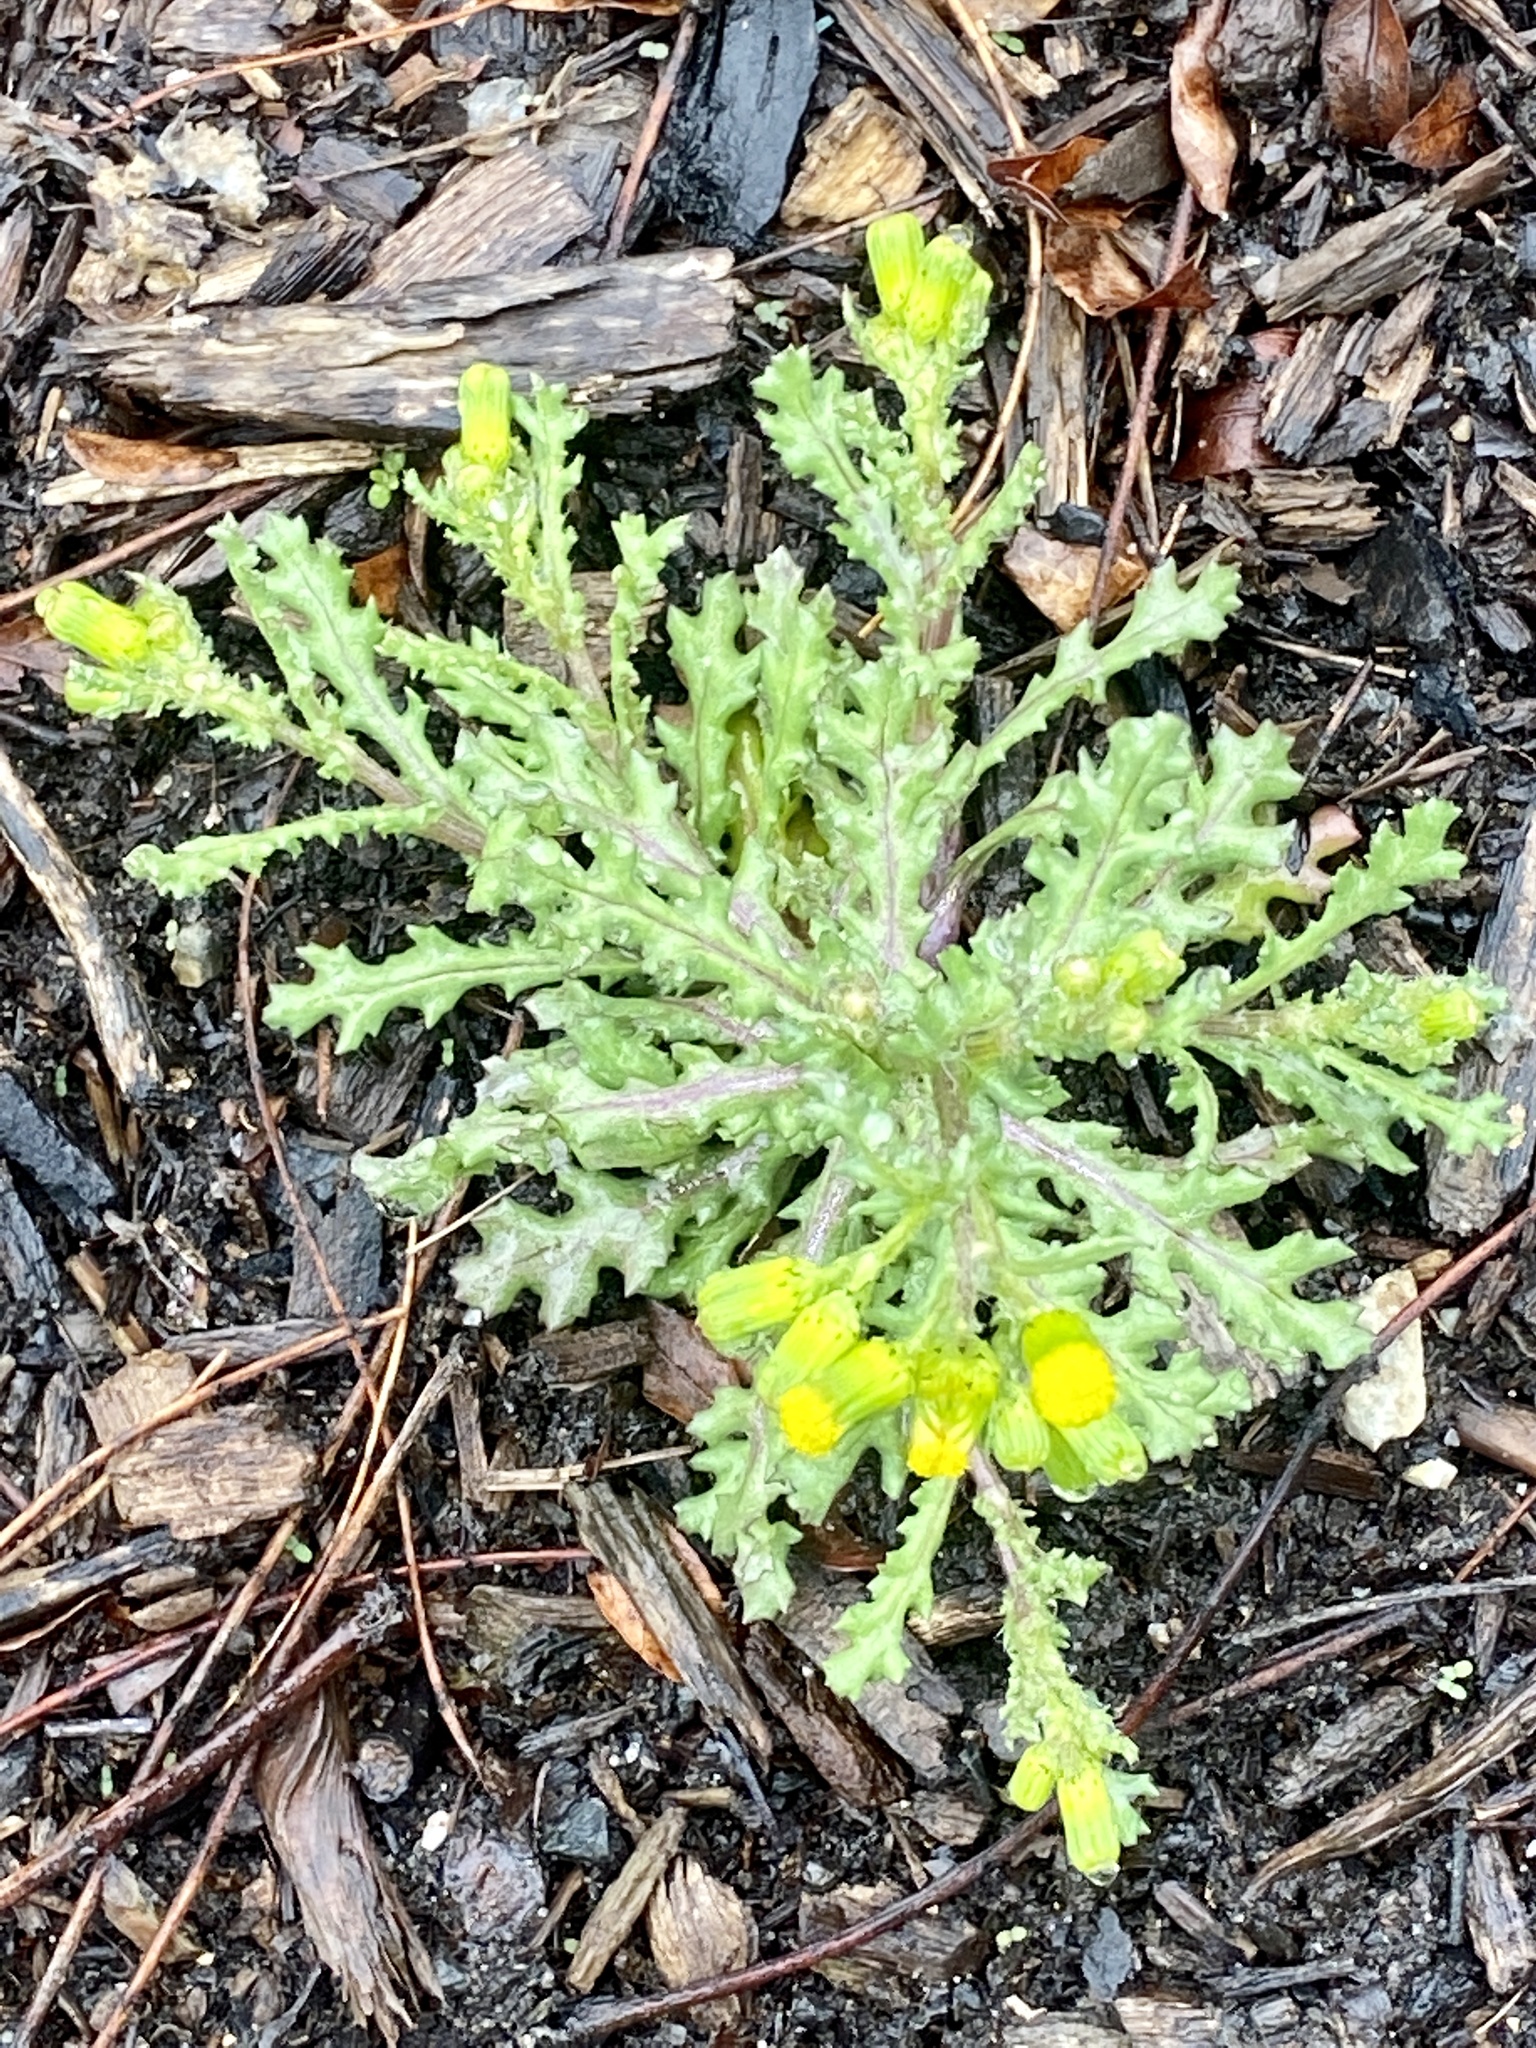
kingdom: Plantae
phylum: Tracheophyta
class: Magnoliopsida
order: Asterales
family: Asteraceae
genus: Senecio
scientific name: Senecio vulgaris
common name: Old-man-in-the-spring
